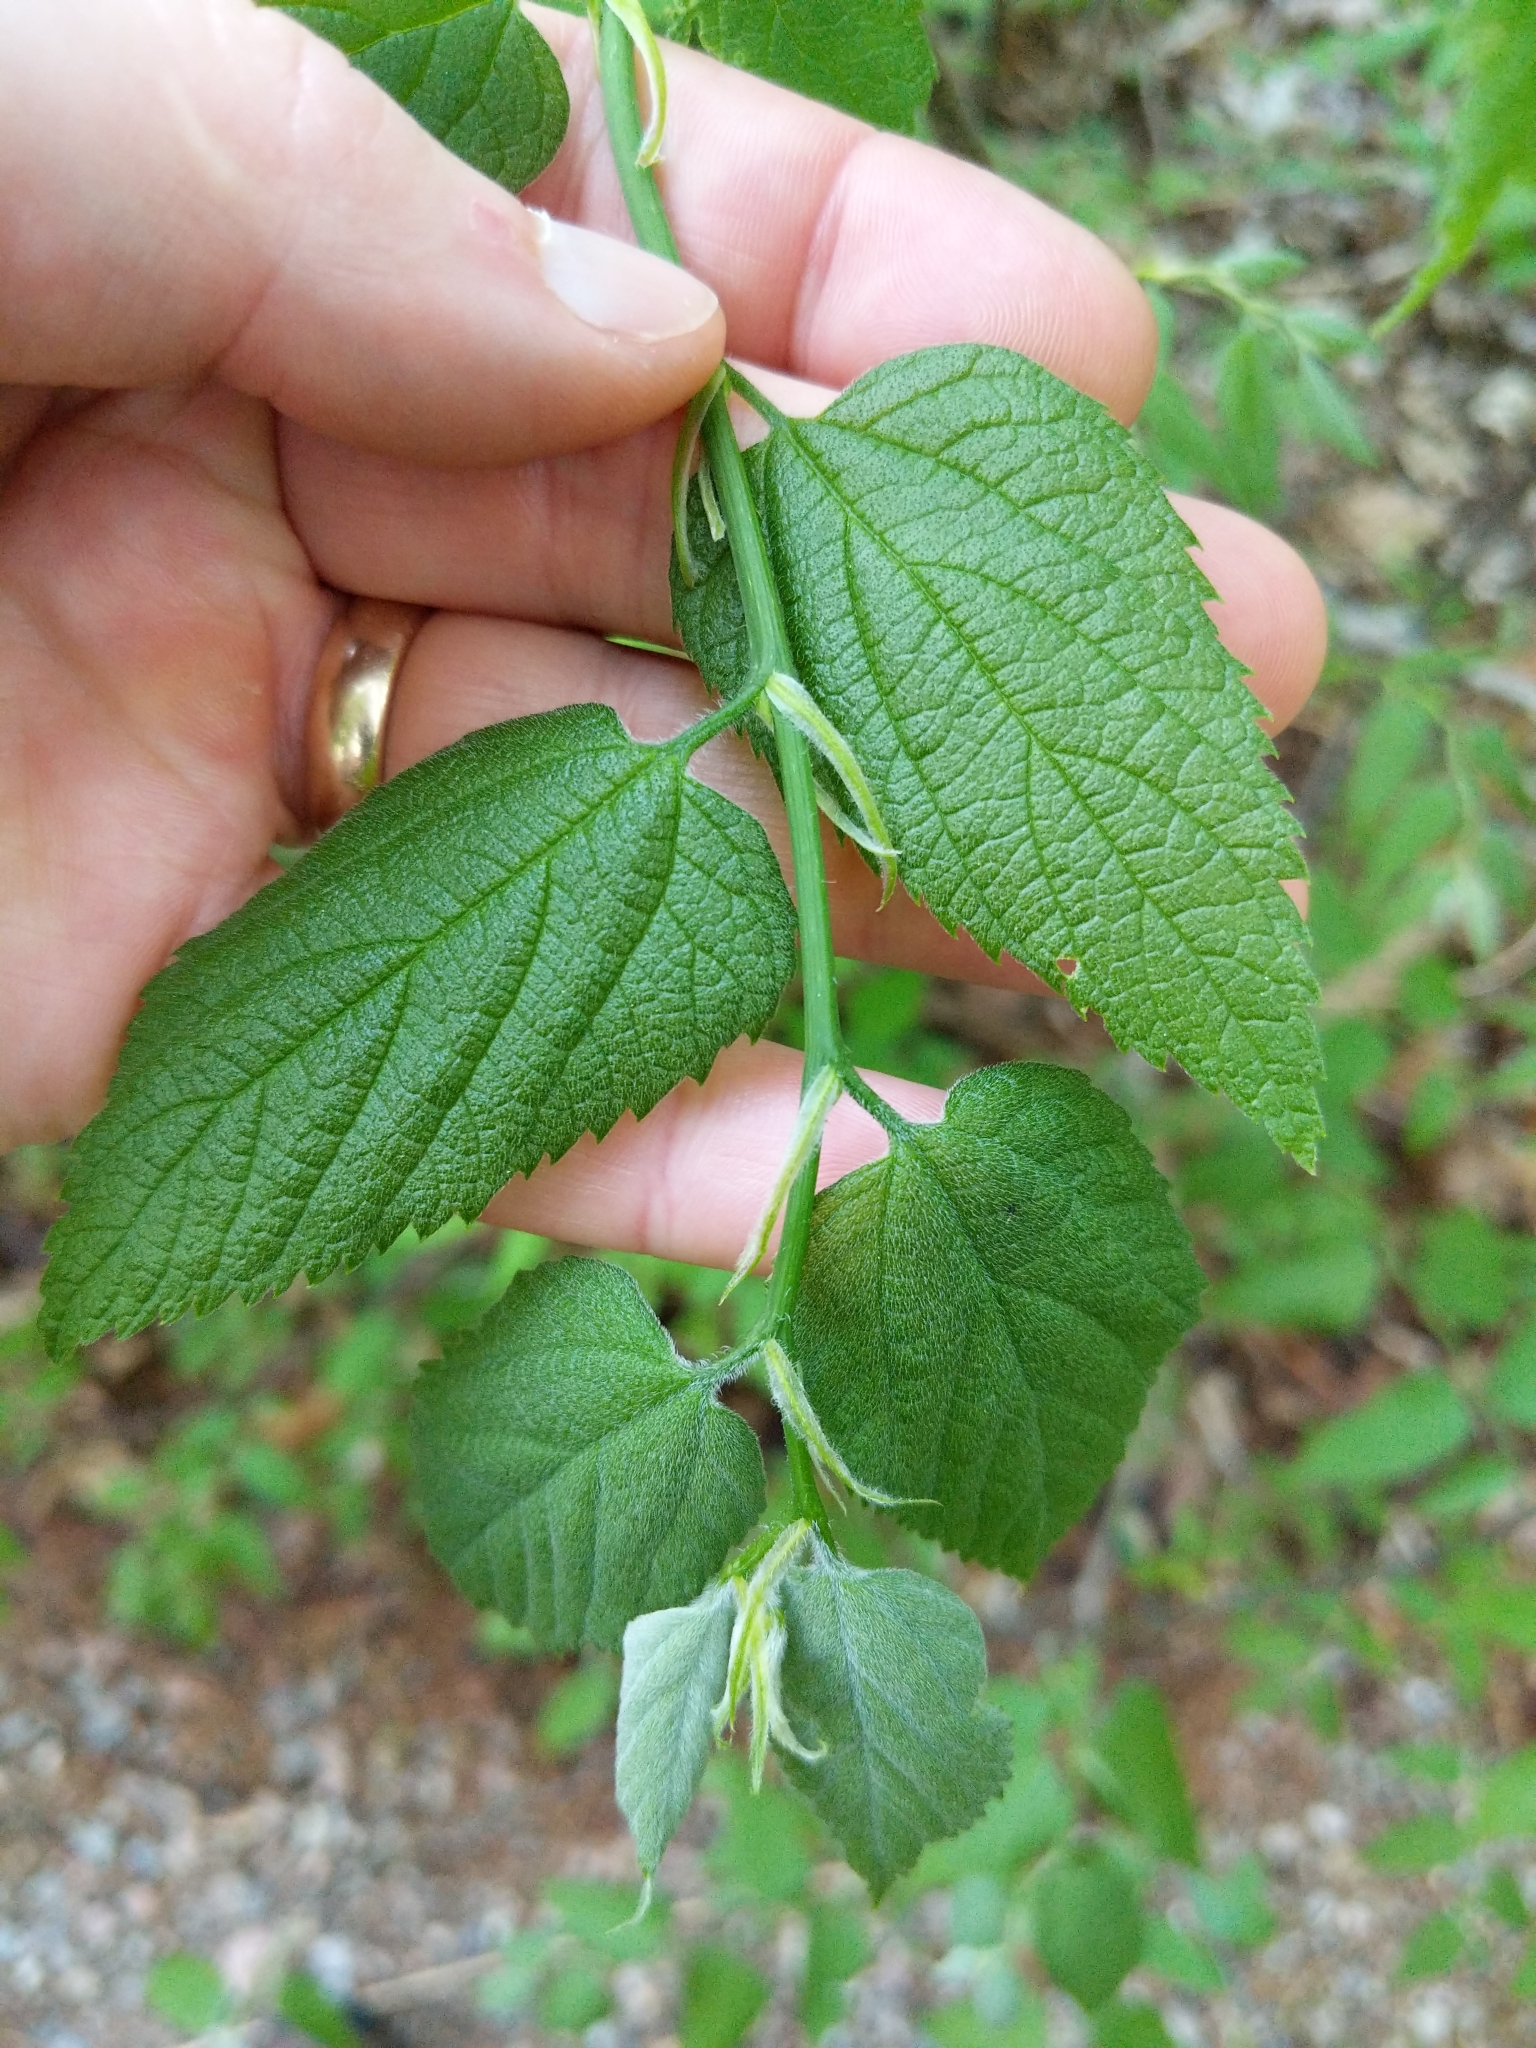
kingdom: Plantae
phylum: Tracheophyta
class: Magnoliopsida
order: Rosales
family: Cannabaceae
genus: Celtis
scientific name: Celtis occidentalis
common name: Common hackberry
